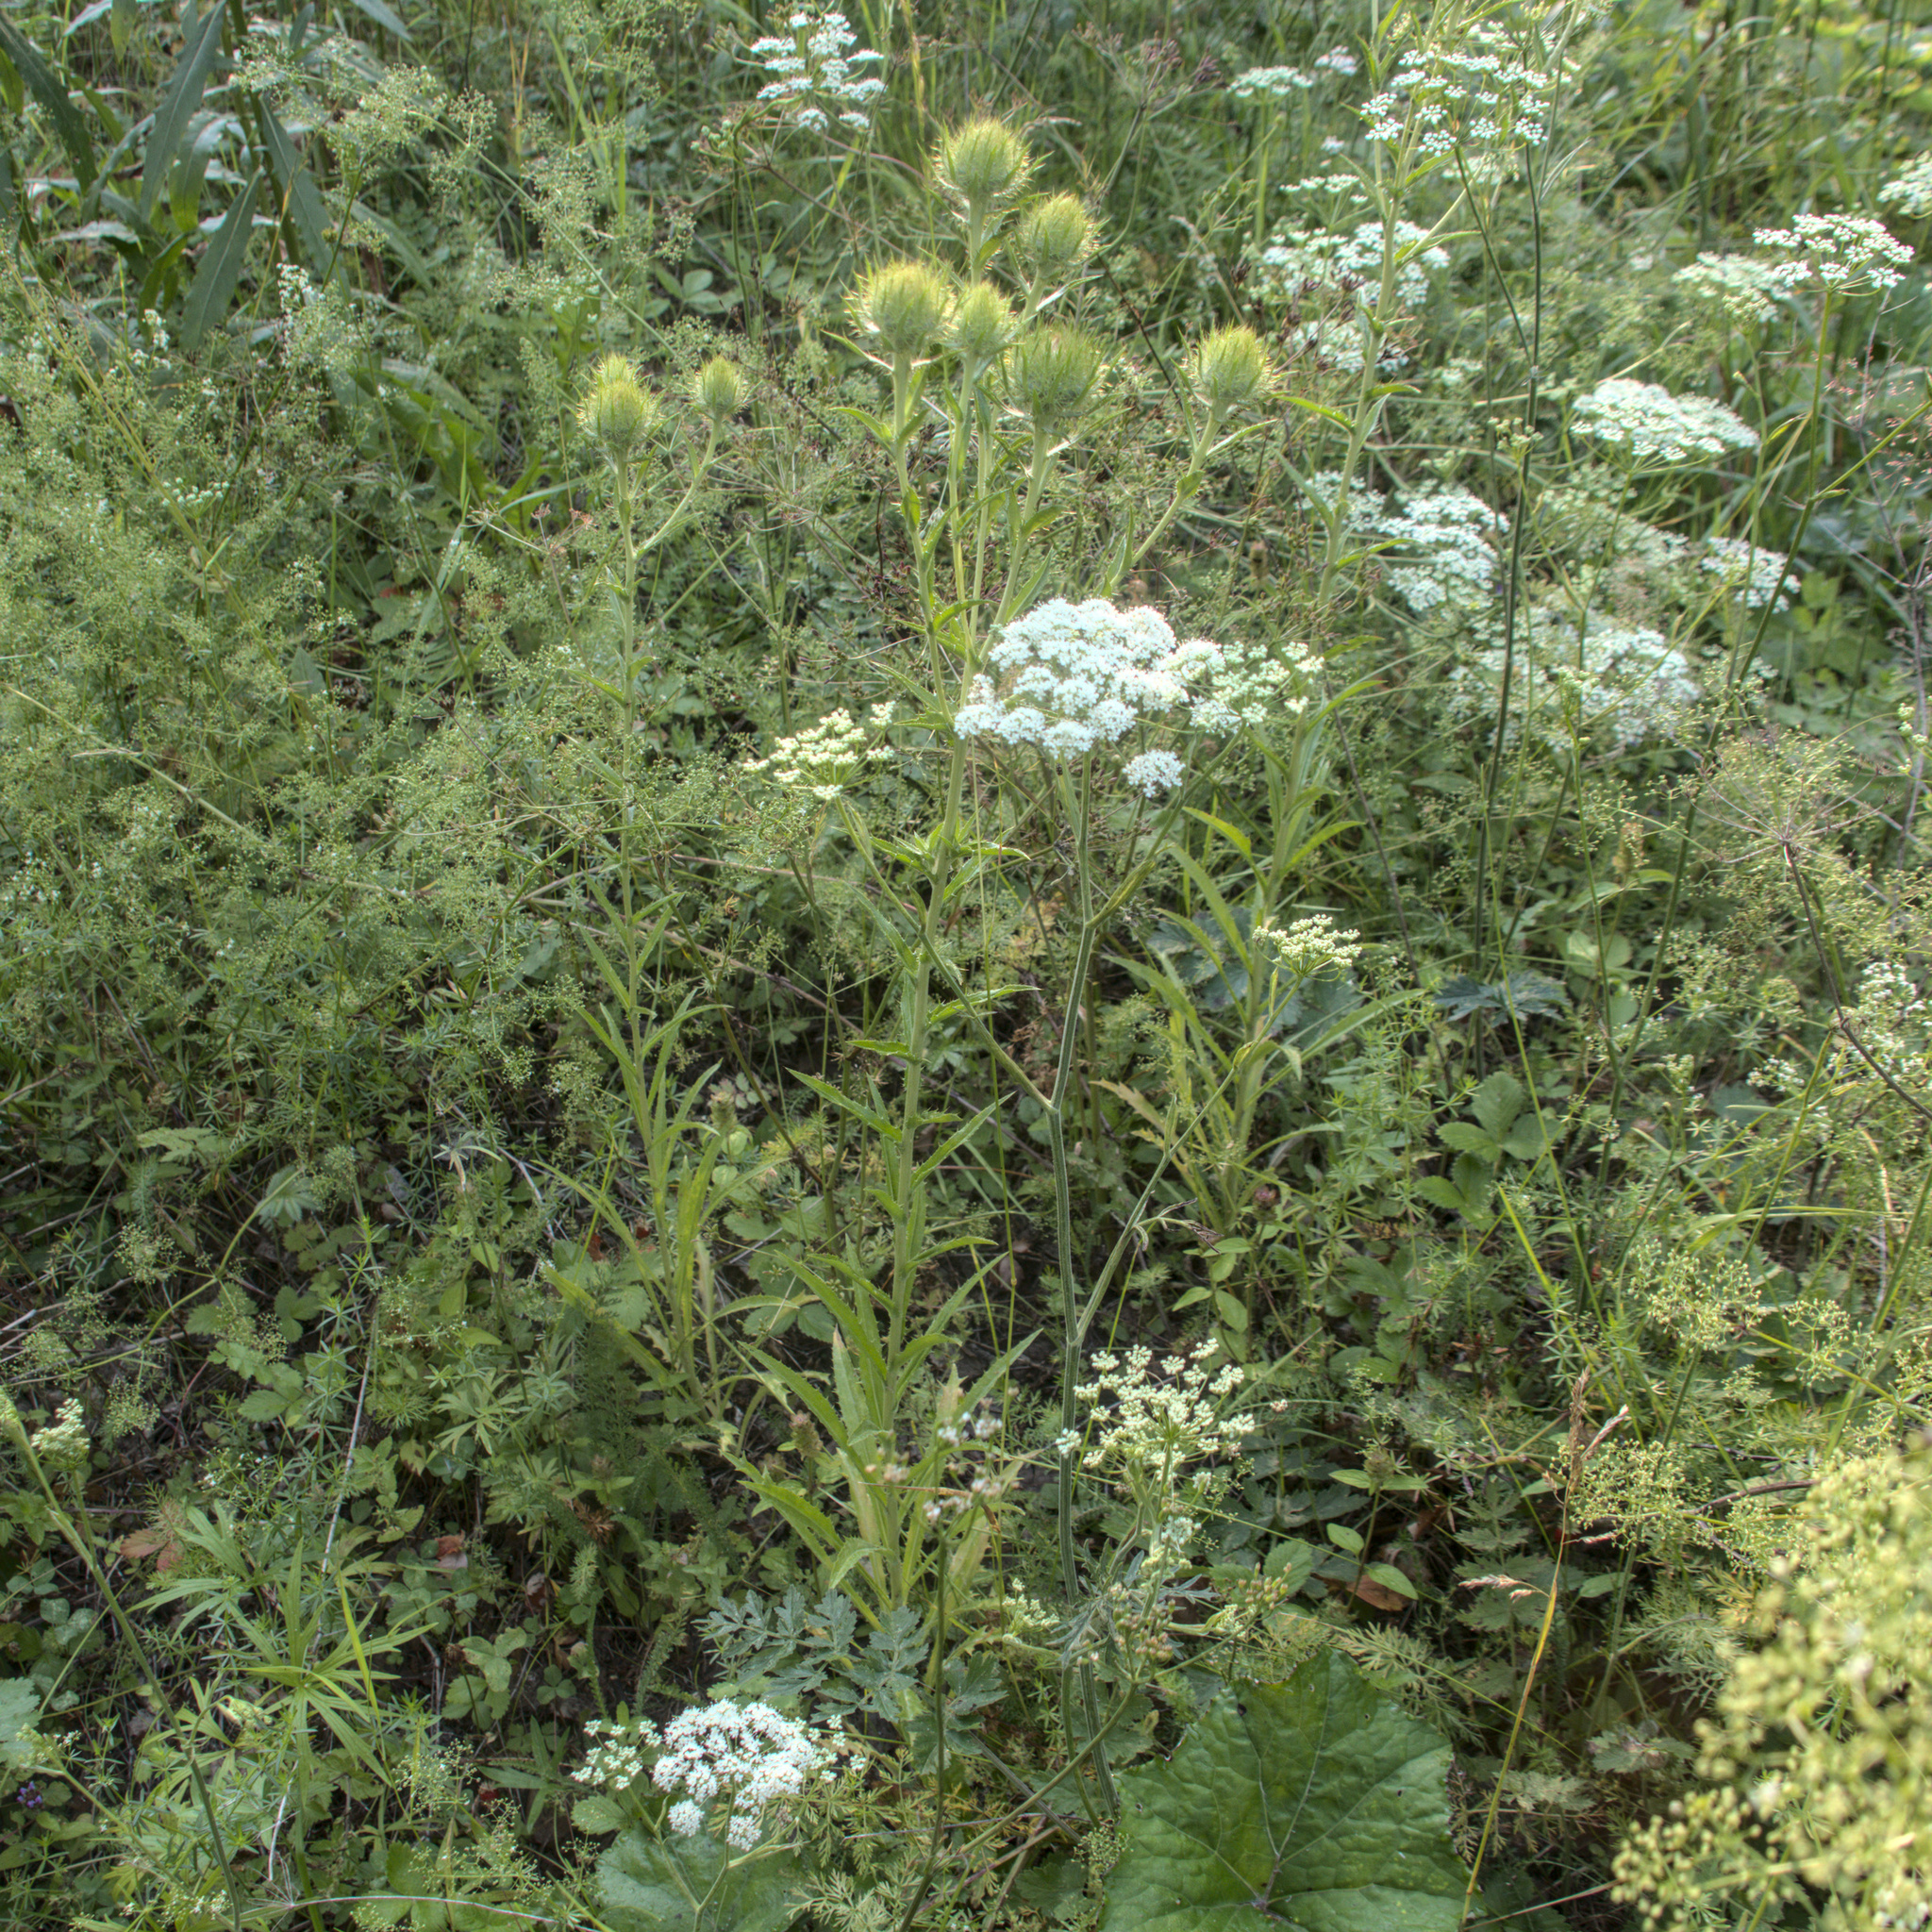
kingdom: Plantae
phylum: Tracheophyta
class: Magnoliopsida
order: Asterales
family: Asteraceae
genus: Carlina
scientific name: Carlina biebersteinii
